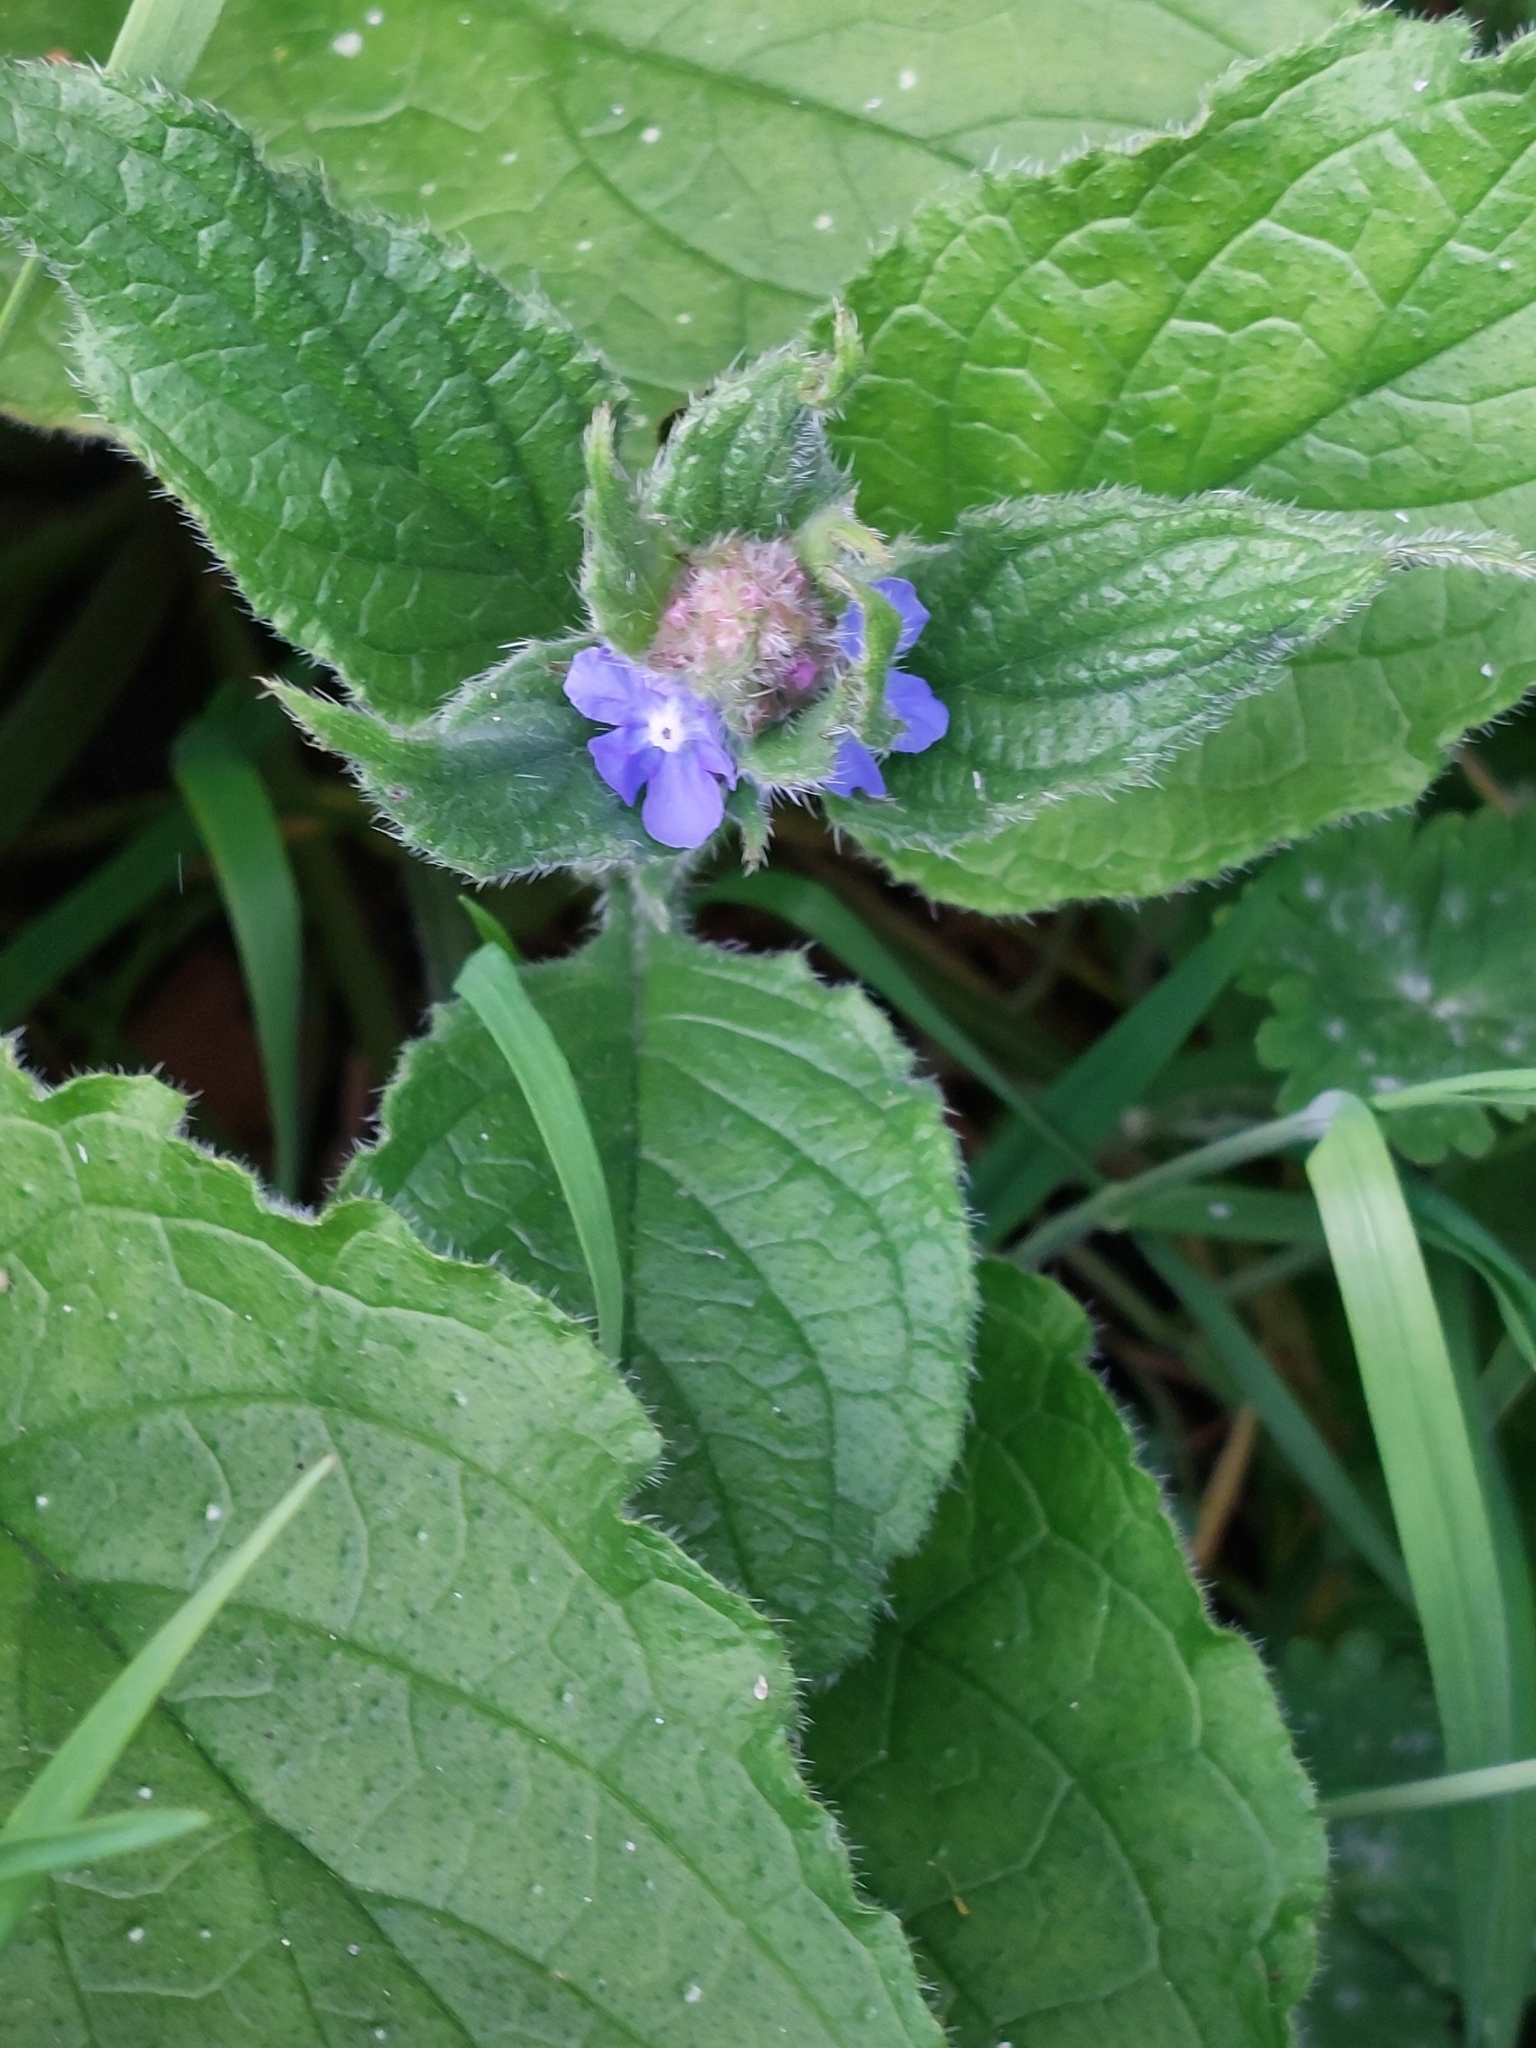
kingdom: Plantae
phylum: Tracheophyta
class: Magnoliopsida
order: Boraginales
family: Boraginaceae
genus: Pentaglottis
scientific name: Pentaglottis sempervirens
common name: Green alkanet
